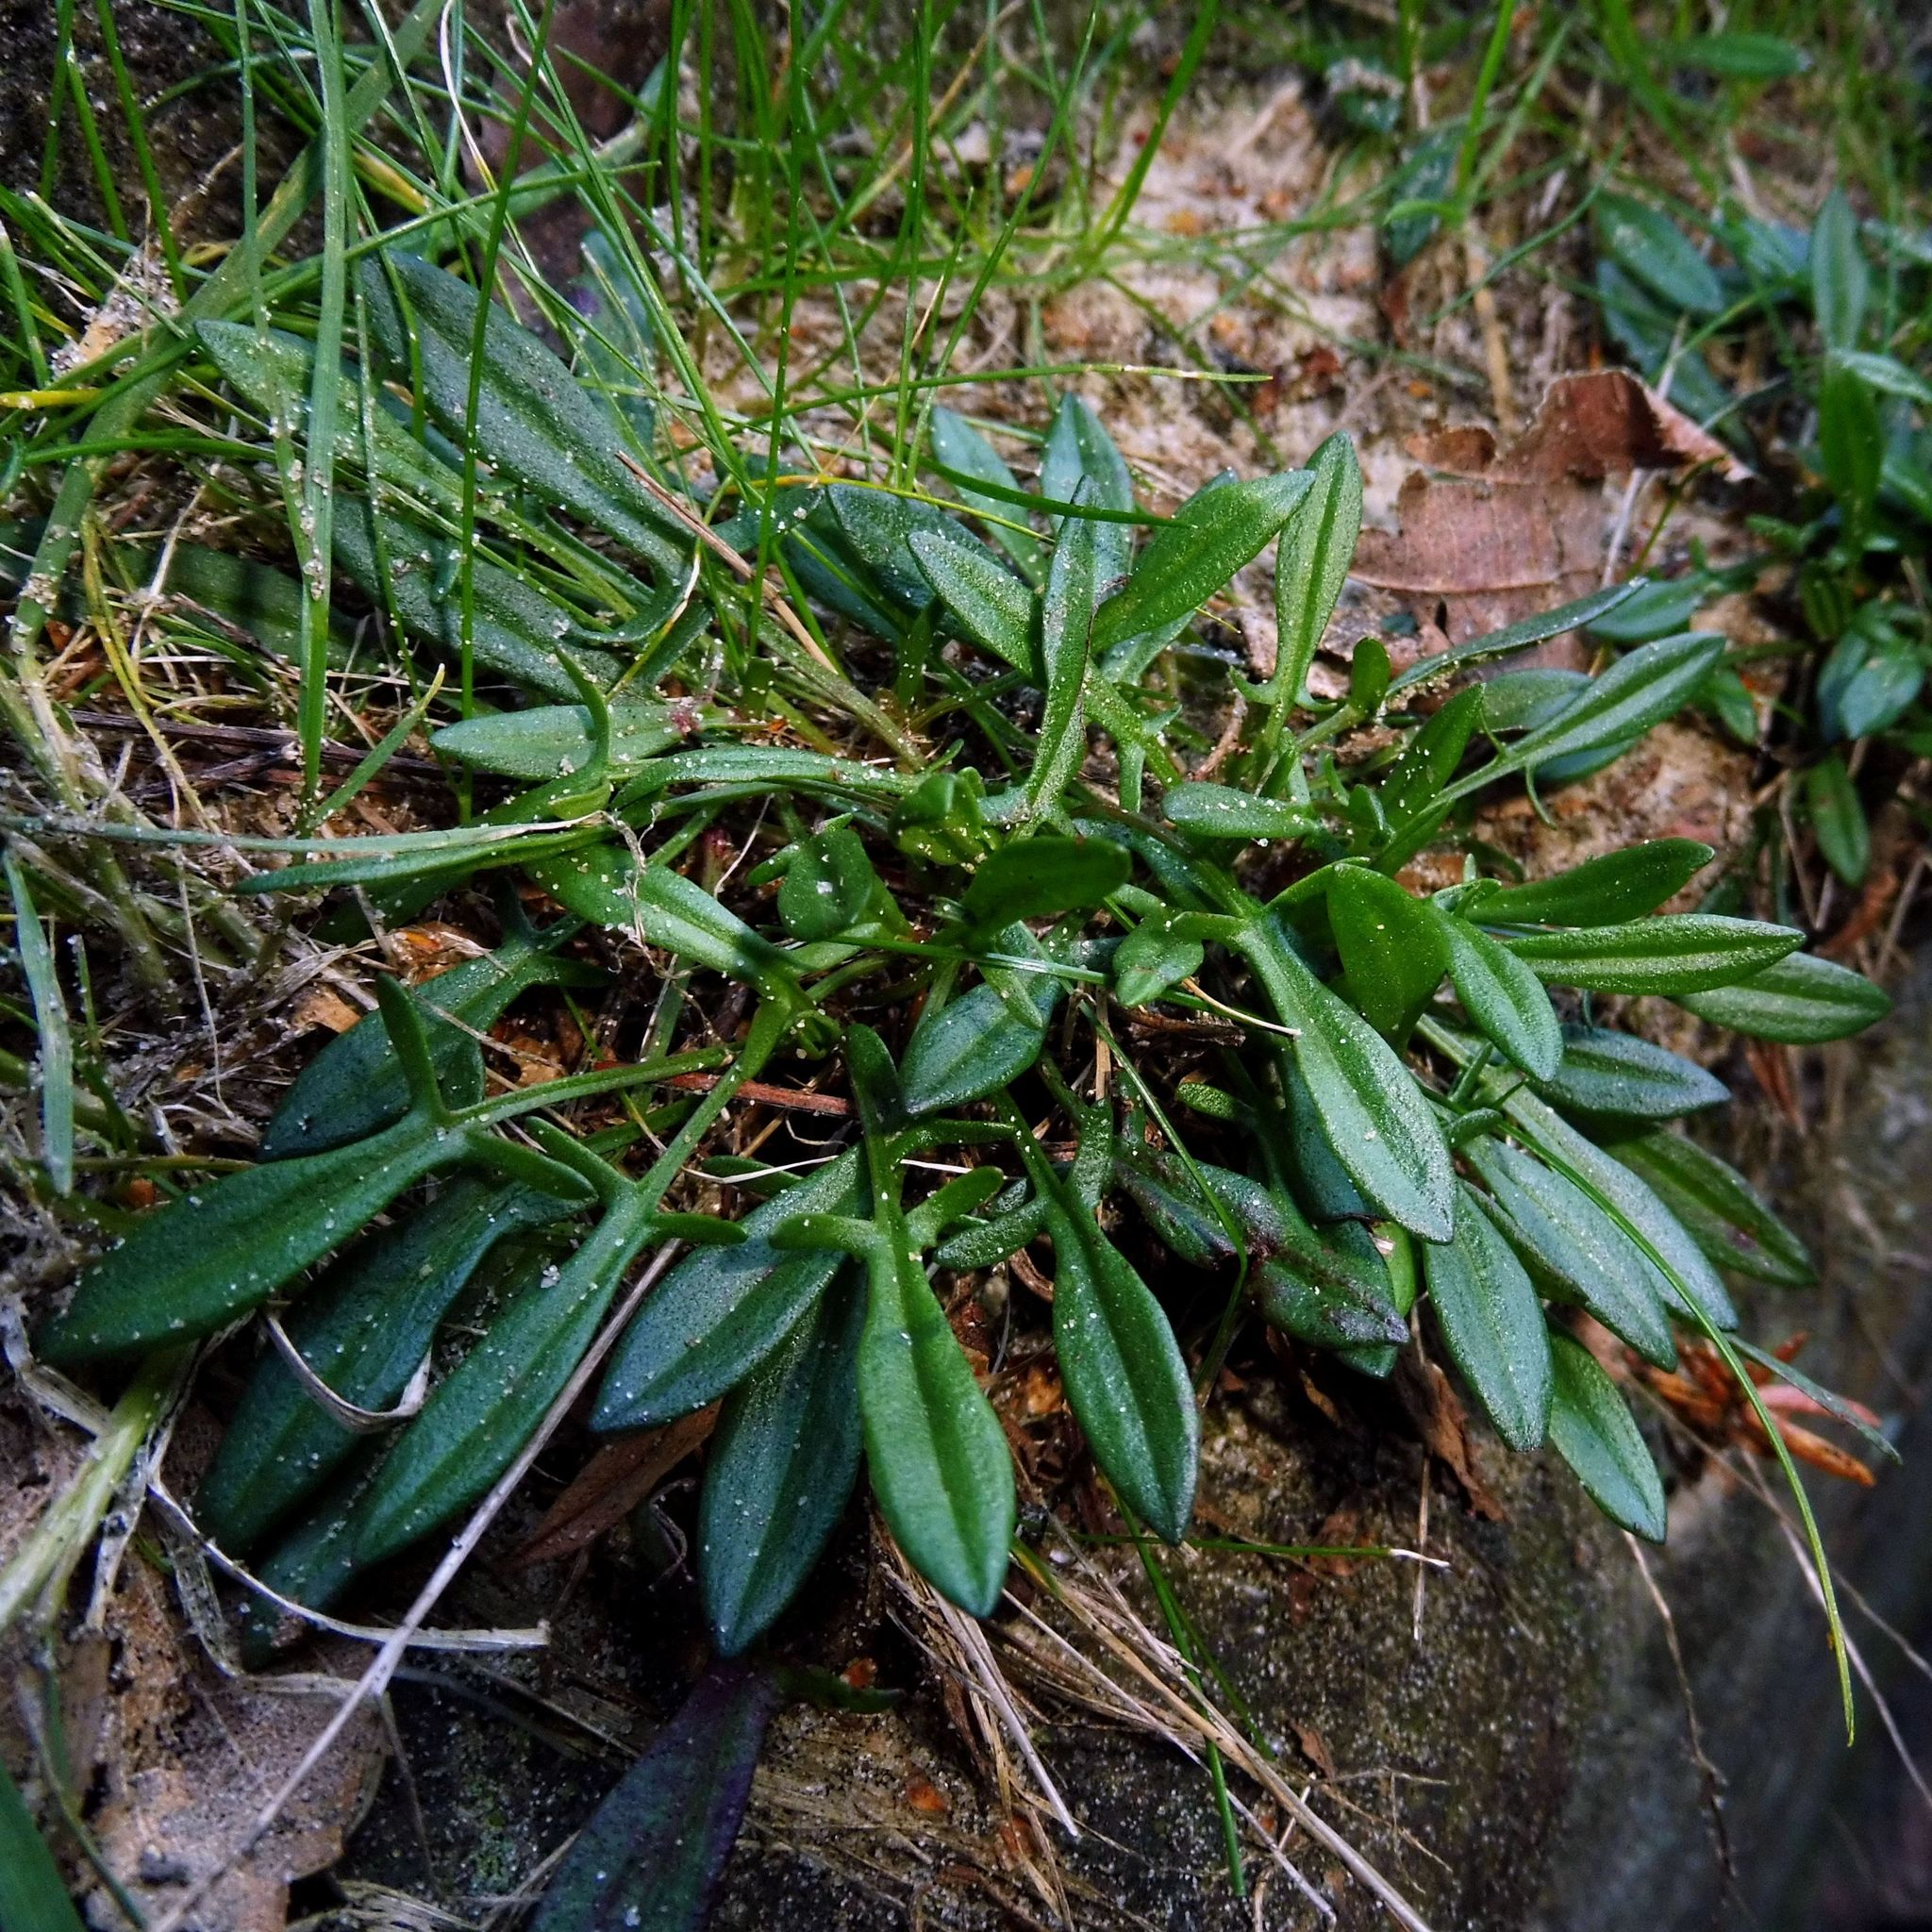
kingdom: Plantae
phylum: Tracheophyta
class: Magnoliopsida
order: Caryophyllales
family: Polygonaceae
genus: Rumex
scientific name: Rumex acetosella
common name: Common sheep sorrel
